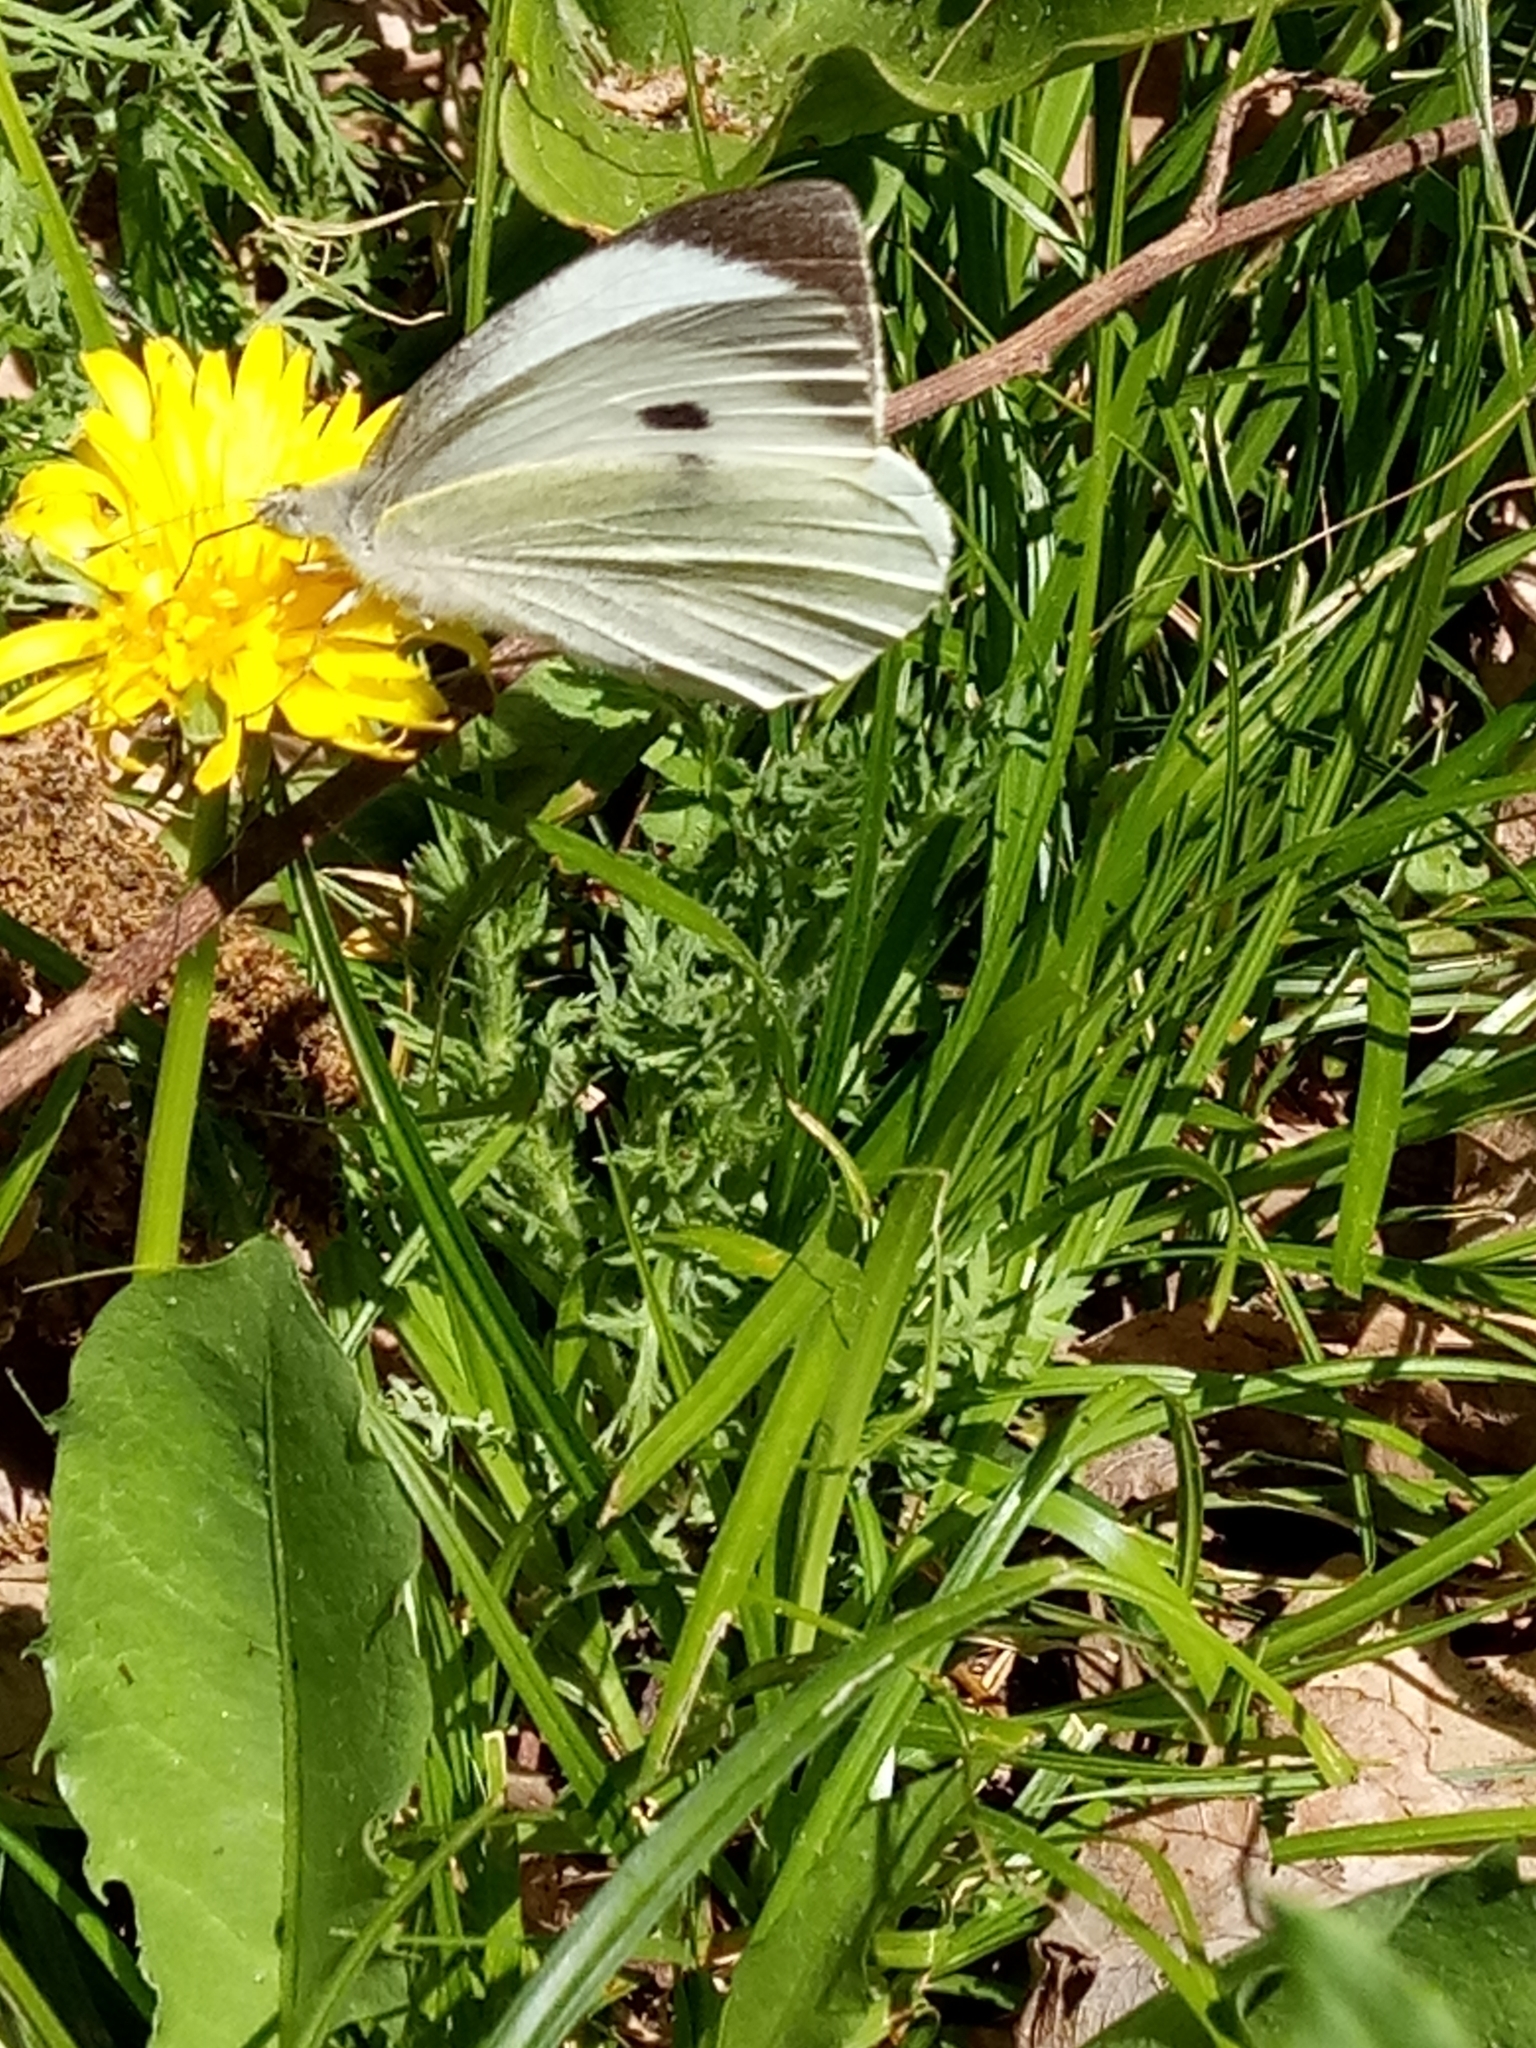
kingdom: Animalia
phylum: Arthropoda
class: Insecta
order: Lepidoptera
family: Pieridae
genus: Pieris
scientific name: Pieris brassicae
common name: Large white
